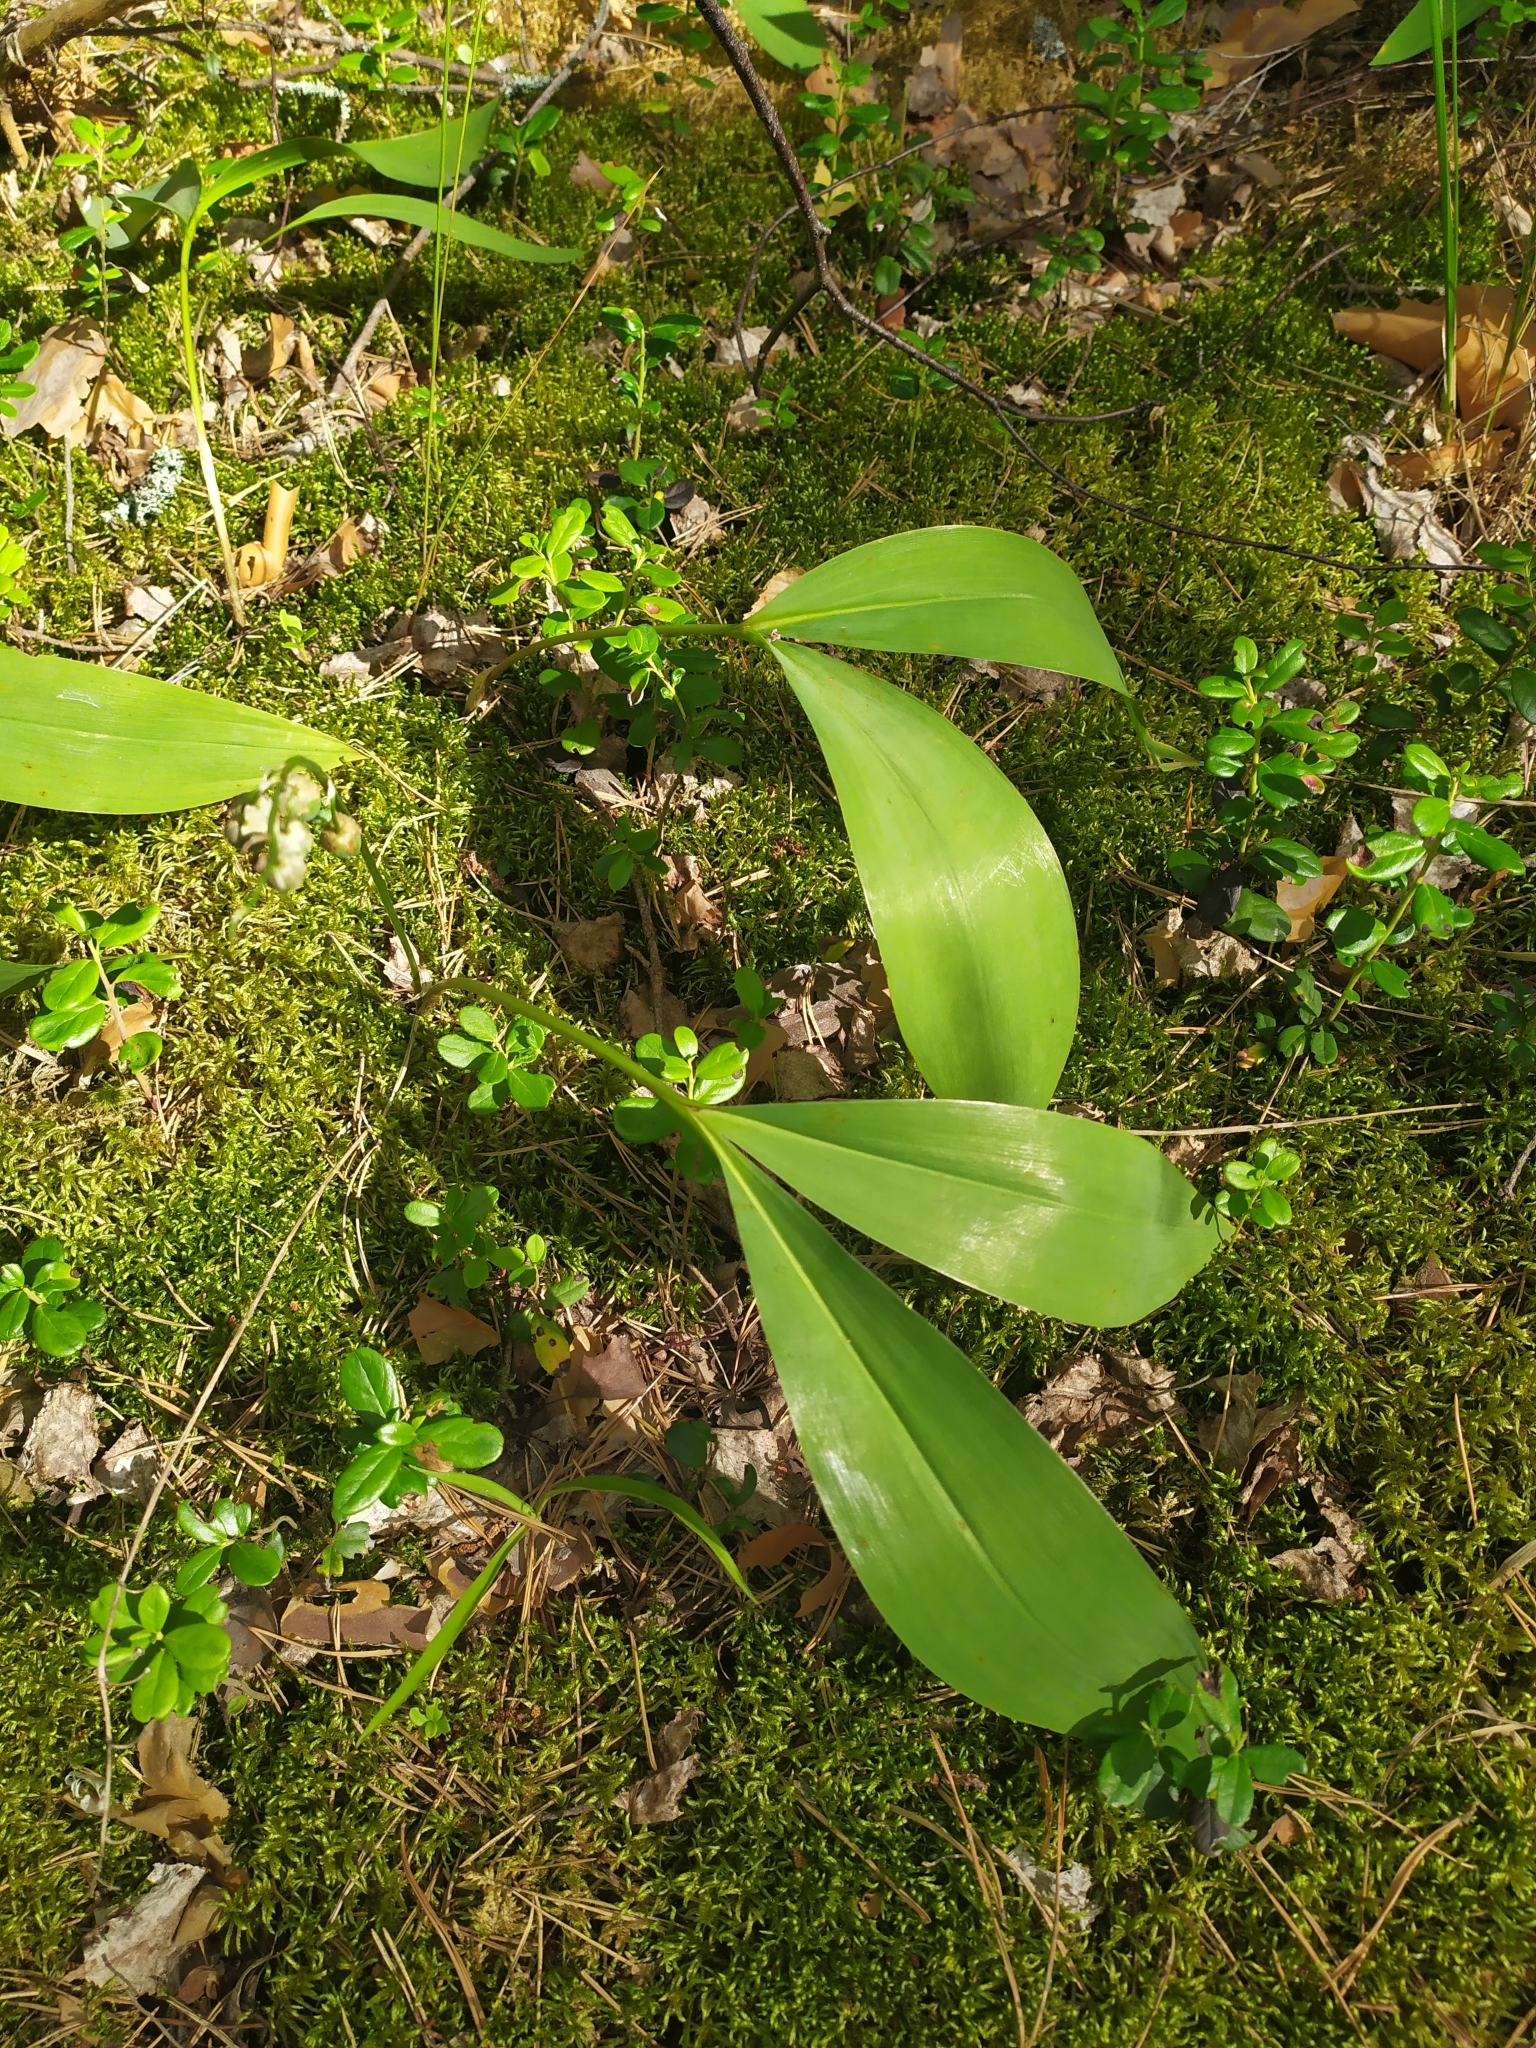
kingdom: Plantae
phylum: Tracheophyta
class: Liliopsida
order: Asparagales
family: Asparagaceae
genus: Convallaria
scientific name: Convallaria majalis
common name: Lily-of-the-valley
